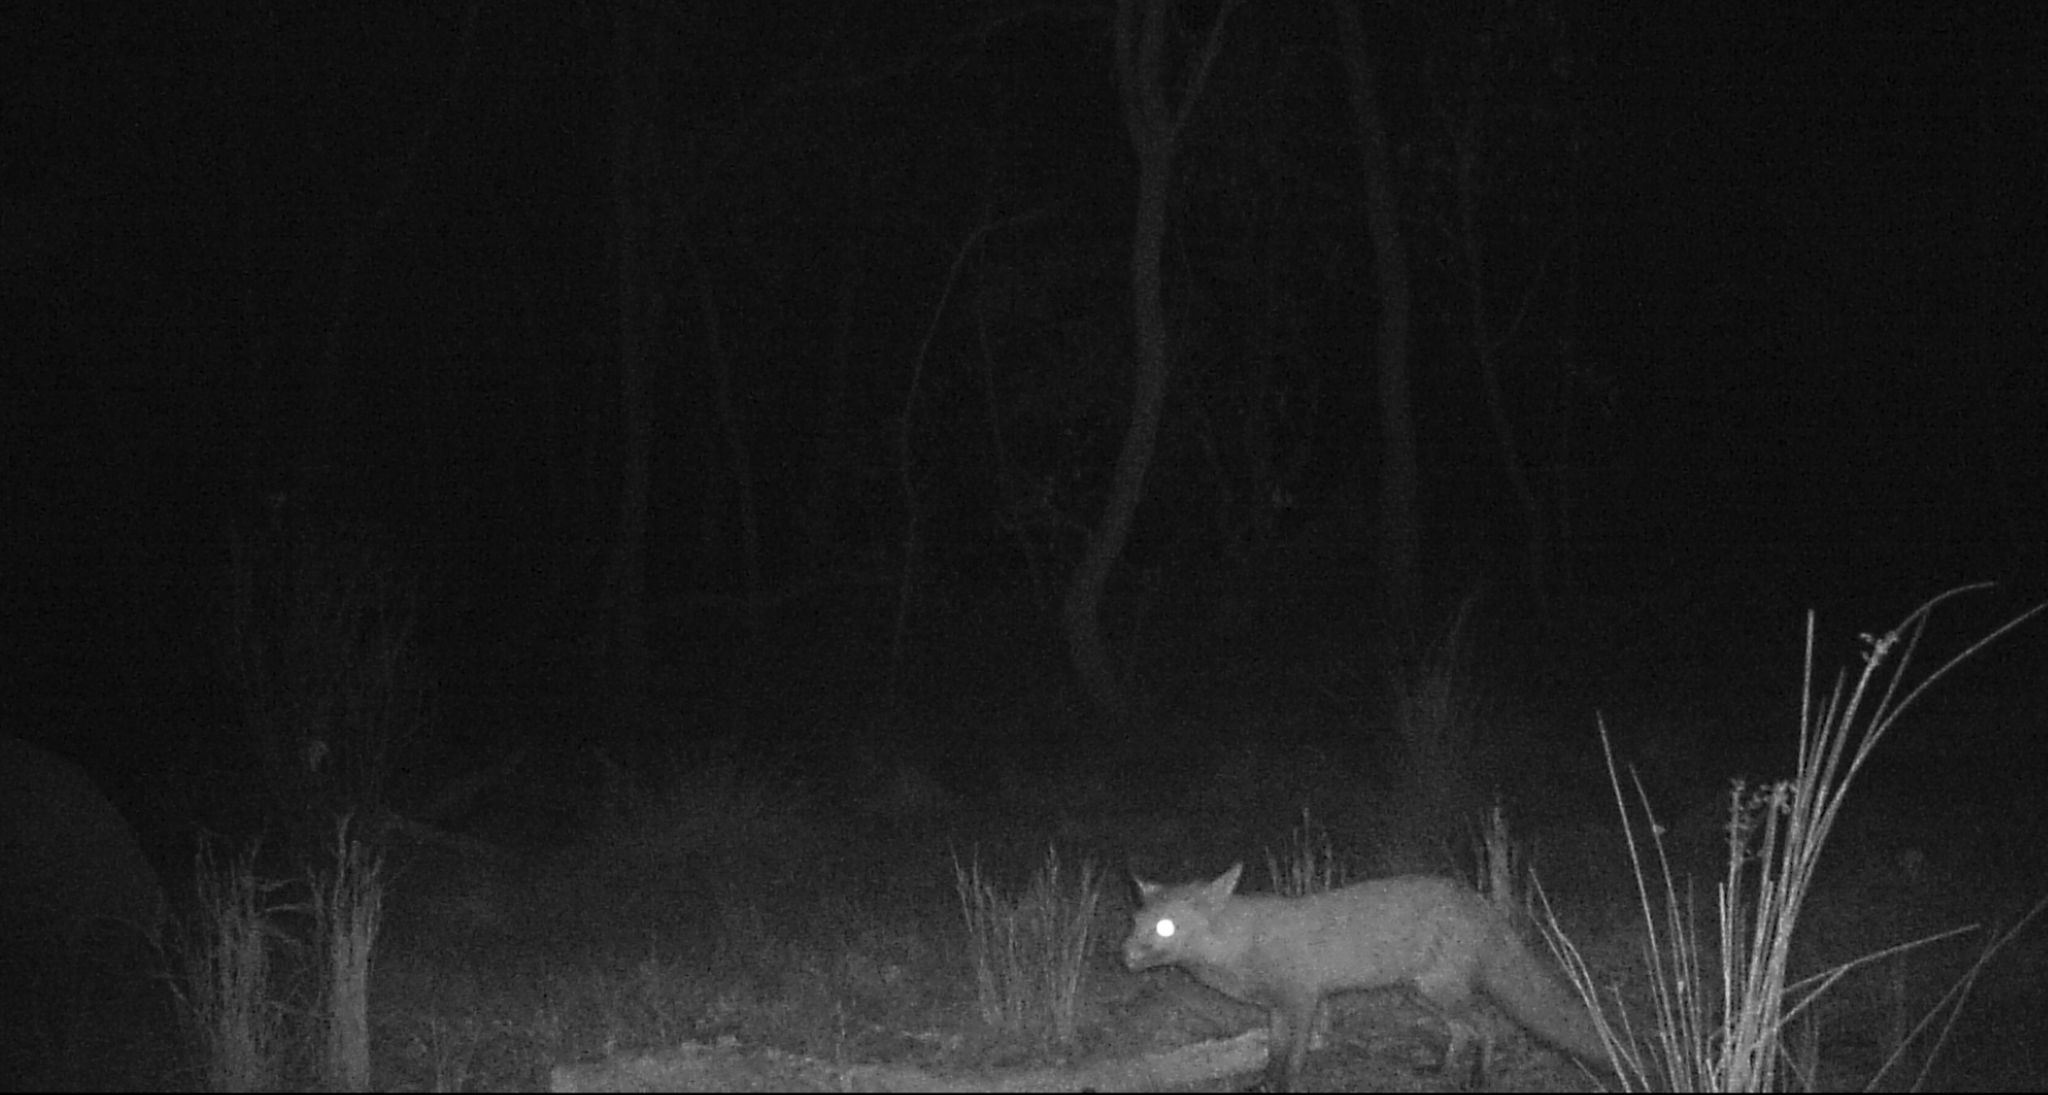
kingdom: Animalia
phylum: Chordata
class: Mammalia
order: Carnivora
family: Canidae
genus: Vulpes
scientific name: Vulpes vulpes
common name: Red fox
